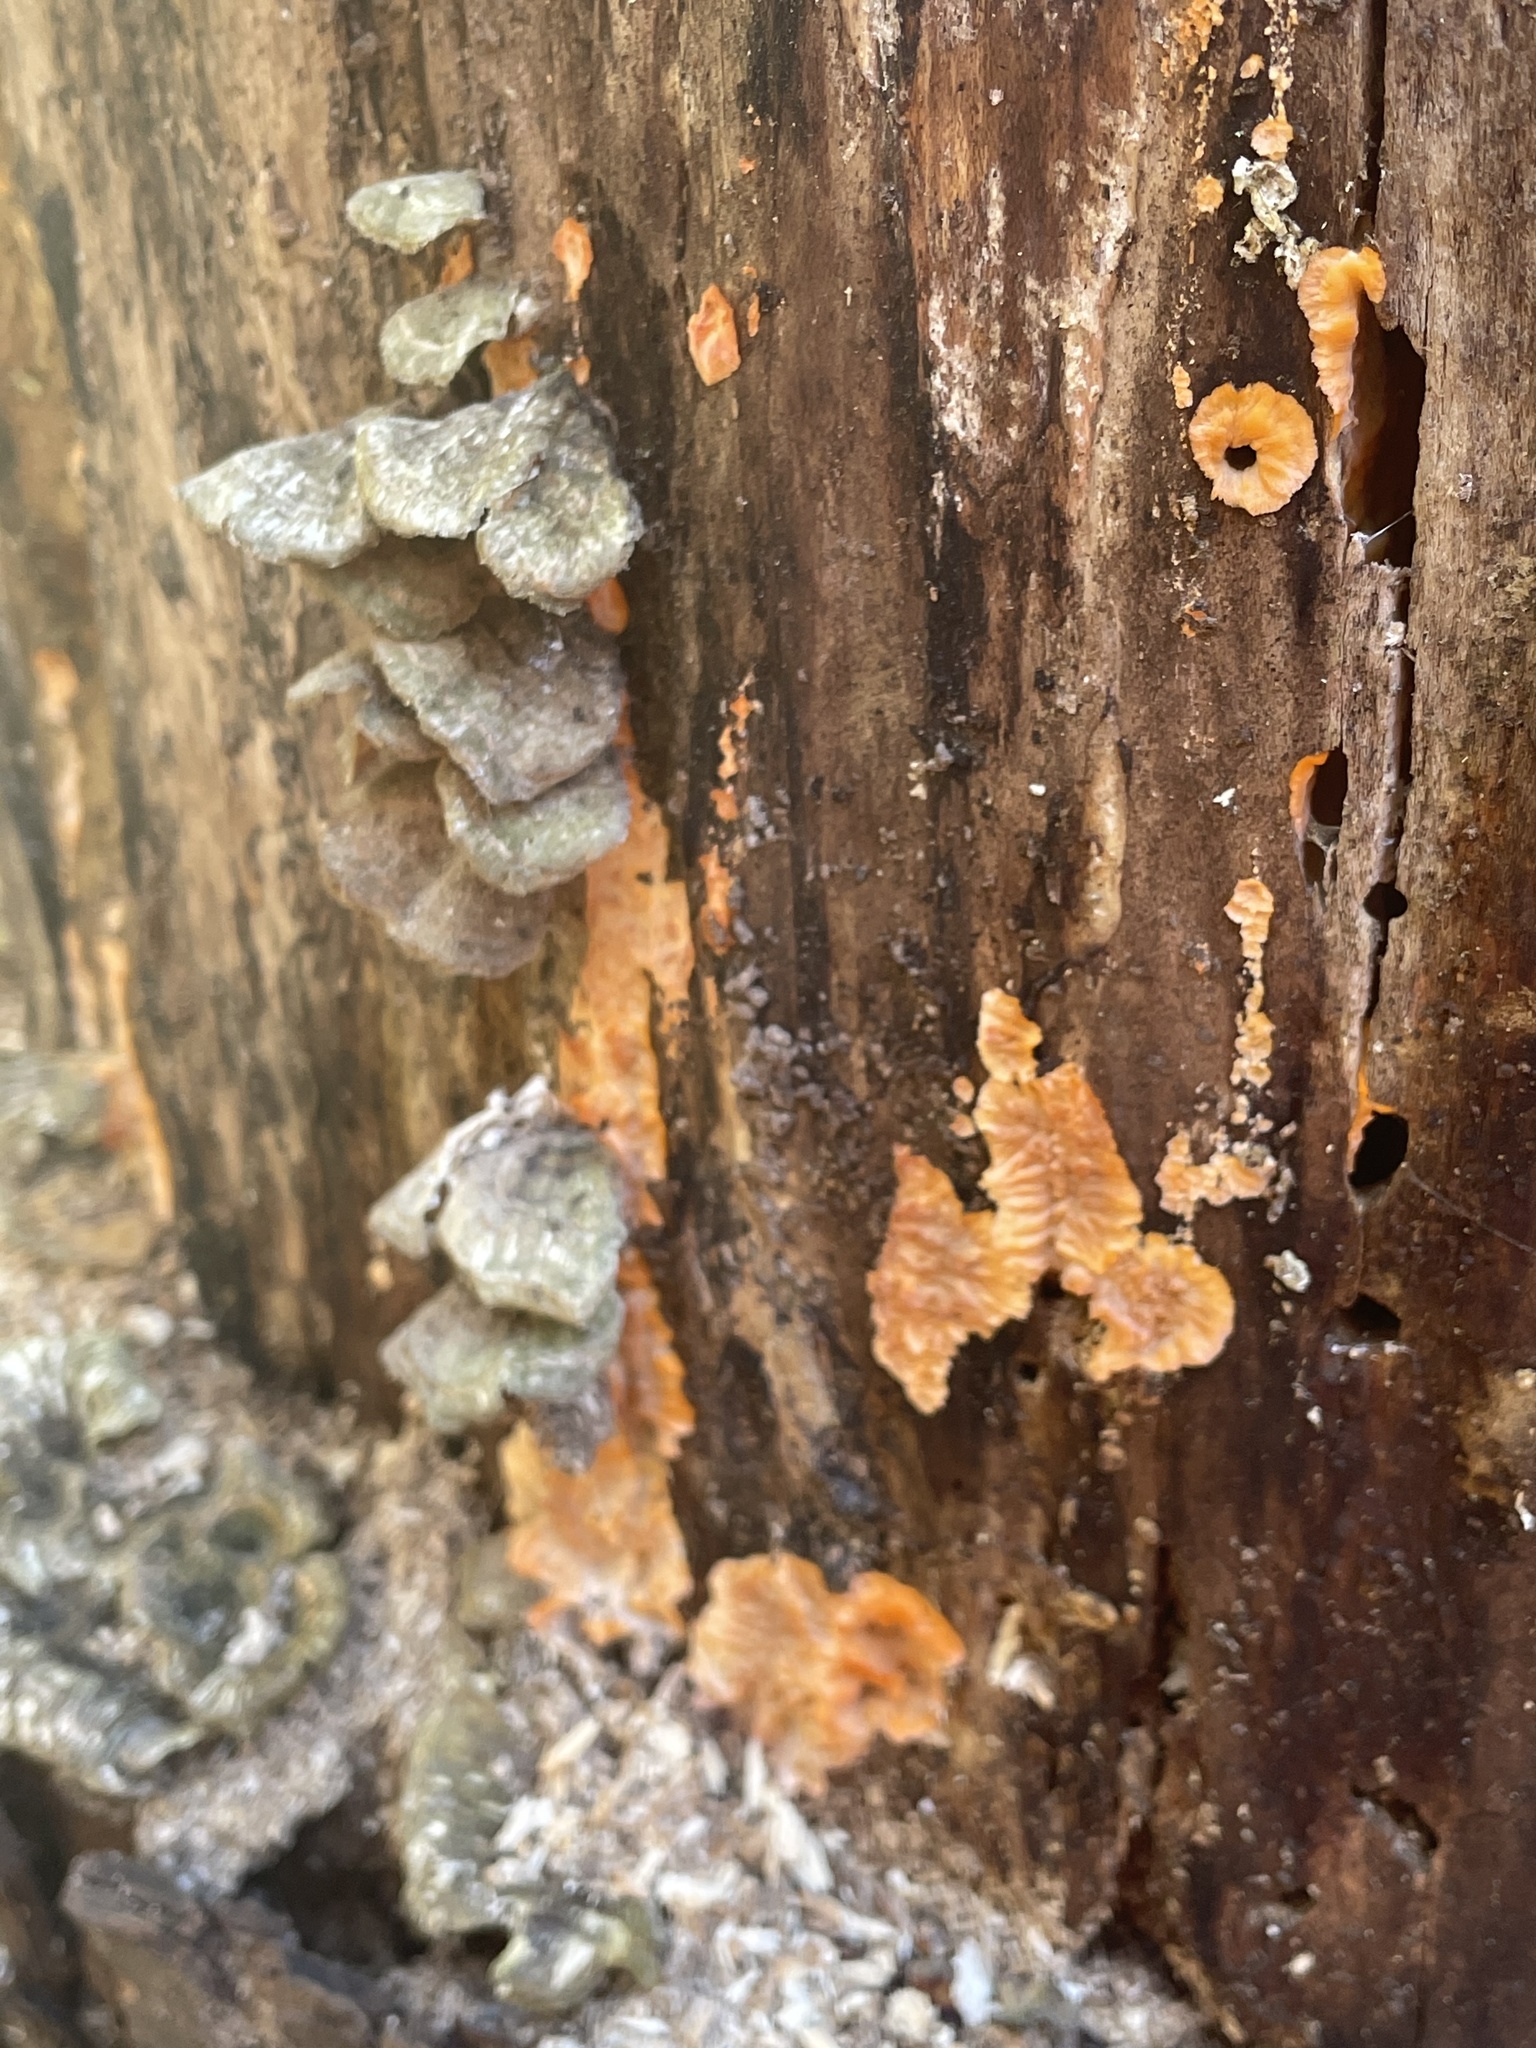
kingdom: Fungi
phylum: Basidiomycota
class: Agaricomycetes
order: Polyporales
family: Meruliaceae
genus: Phlebia
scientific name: Phlebia radiata
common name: Wrinkled crust
